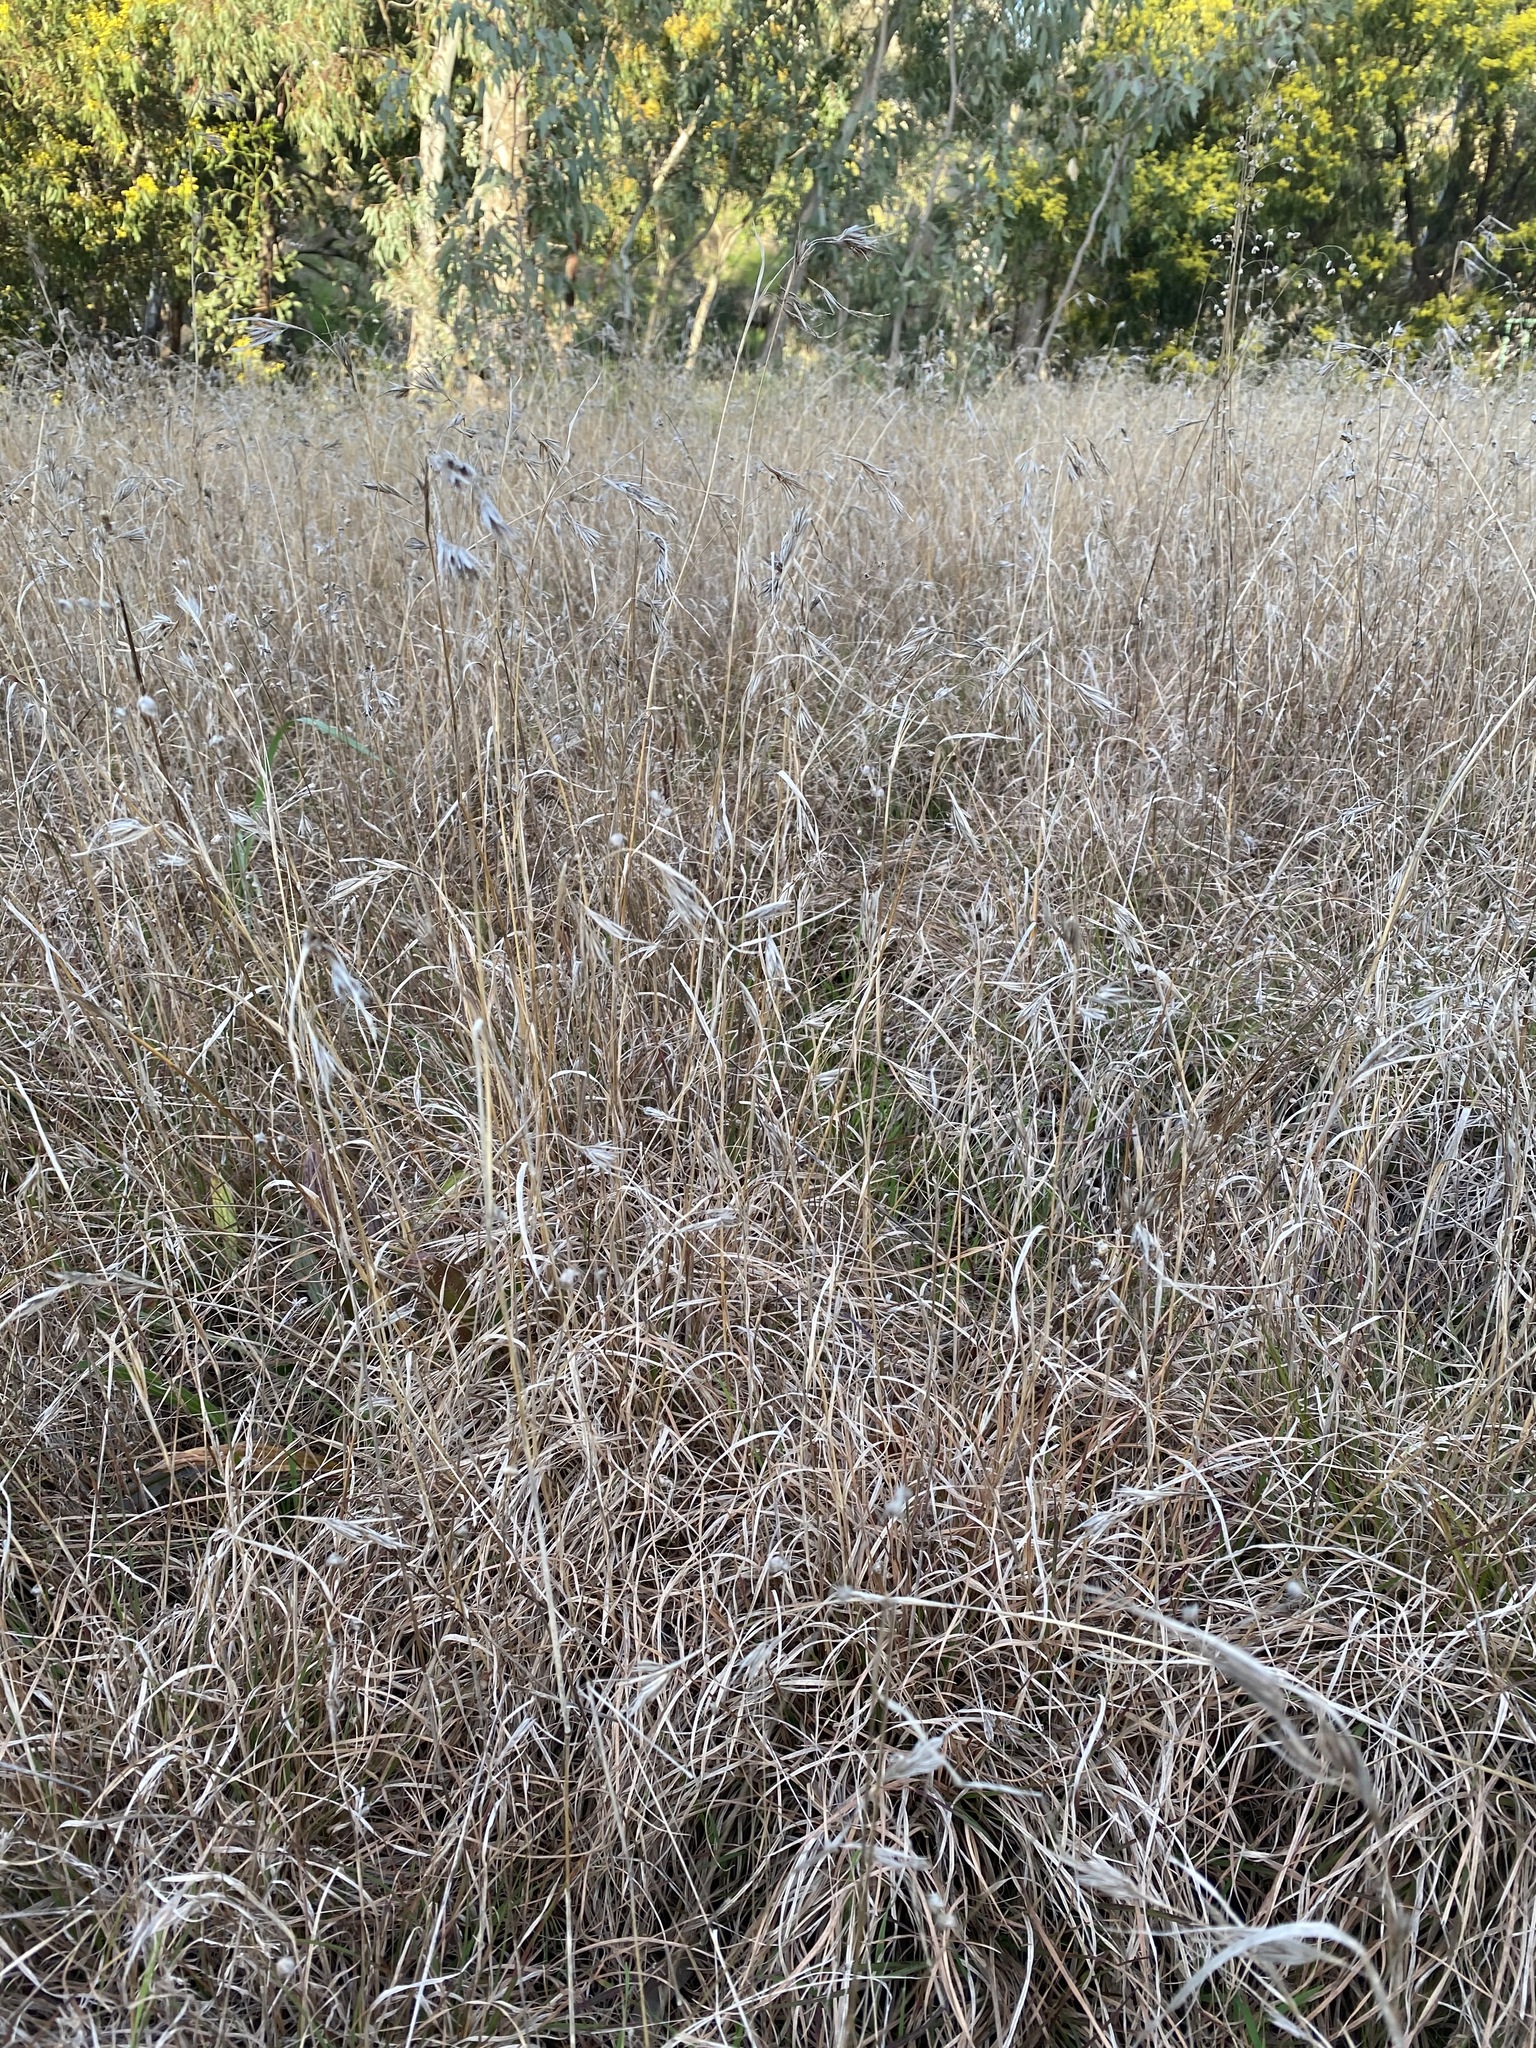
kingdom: Plantae
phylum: Tracheophyta
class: Liliopsida
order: Poales
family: Poaceae
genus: Themeda
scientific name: Themeda triandra
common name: Kangaroo grass
